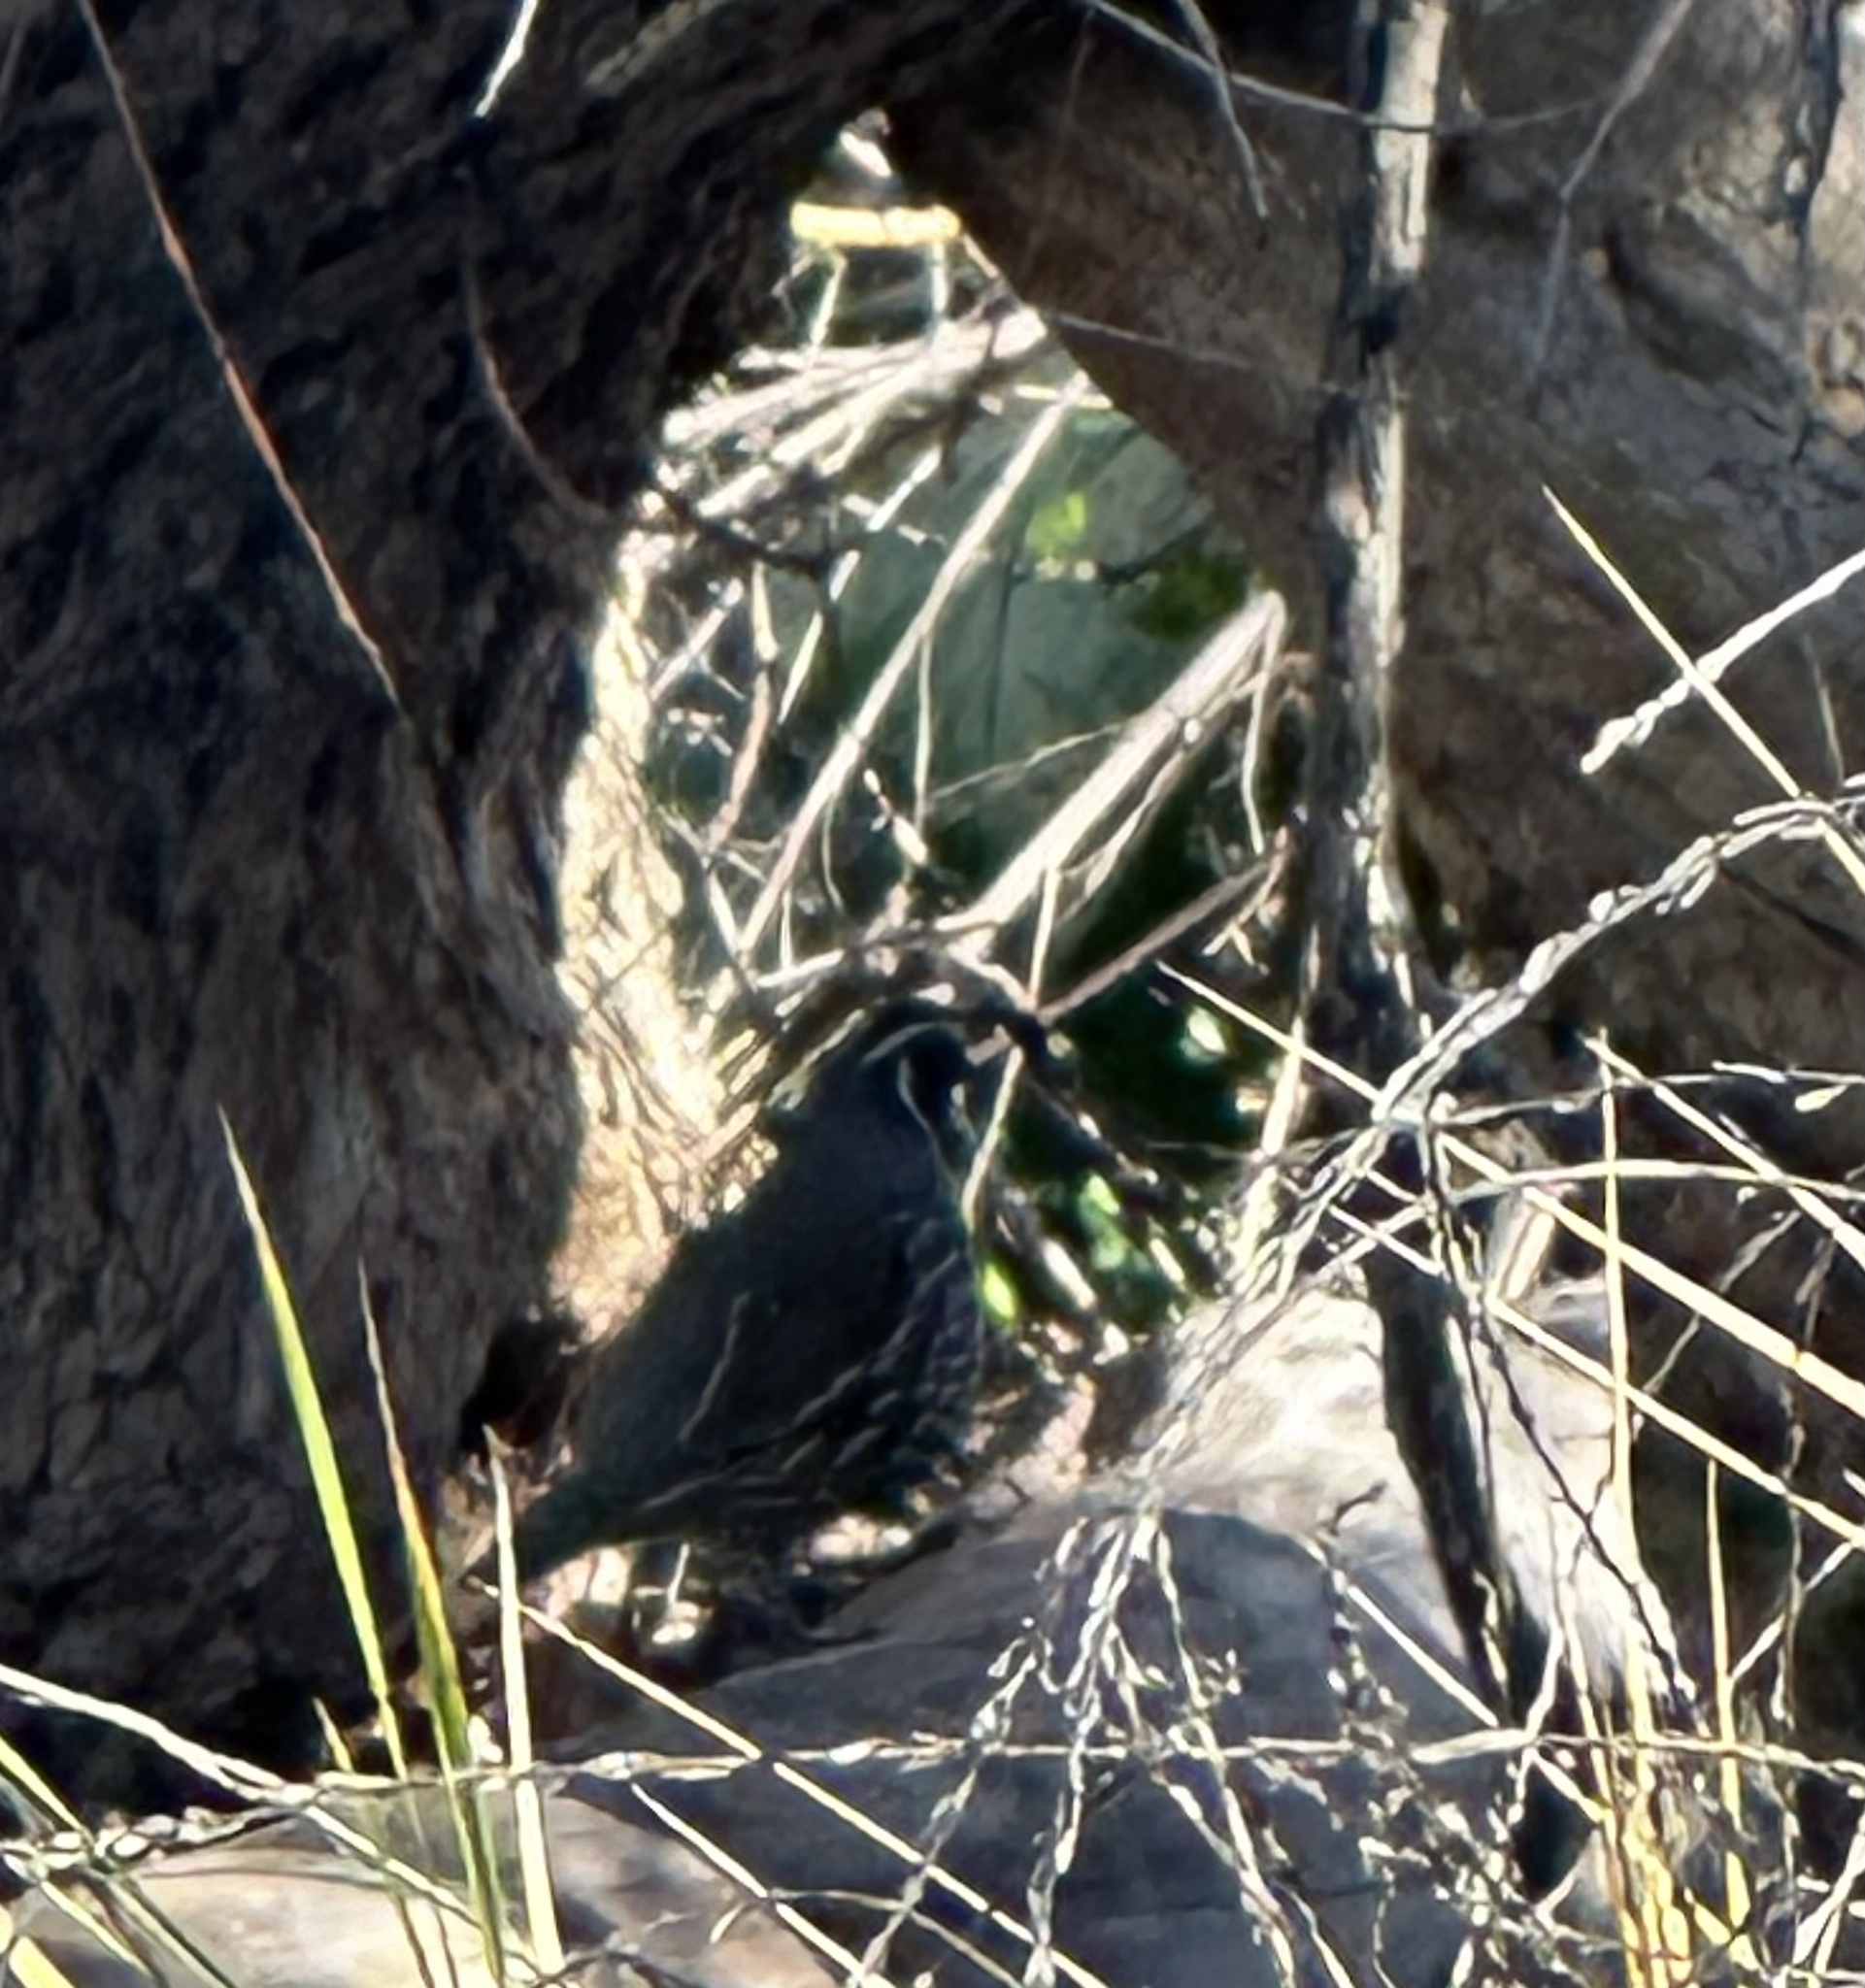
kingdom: Animalia
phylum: Chordata
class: Aves
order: Galliformes
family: Odontophoridae
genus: Callipepla
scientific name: Callipepla californica
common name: California quail
